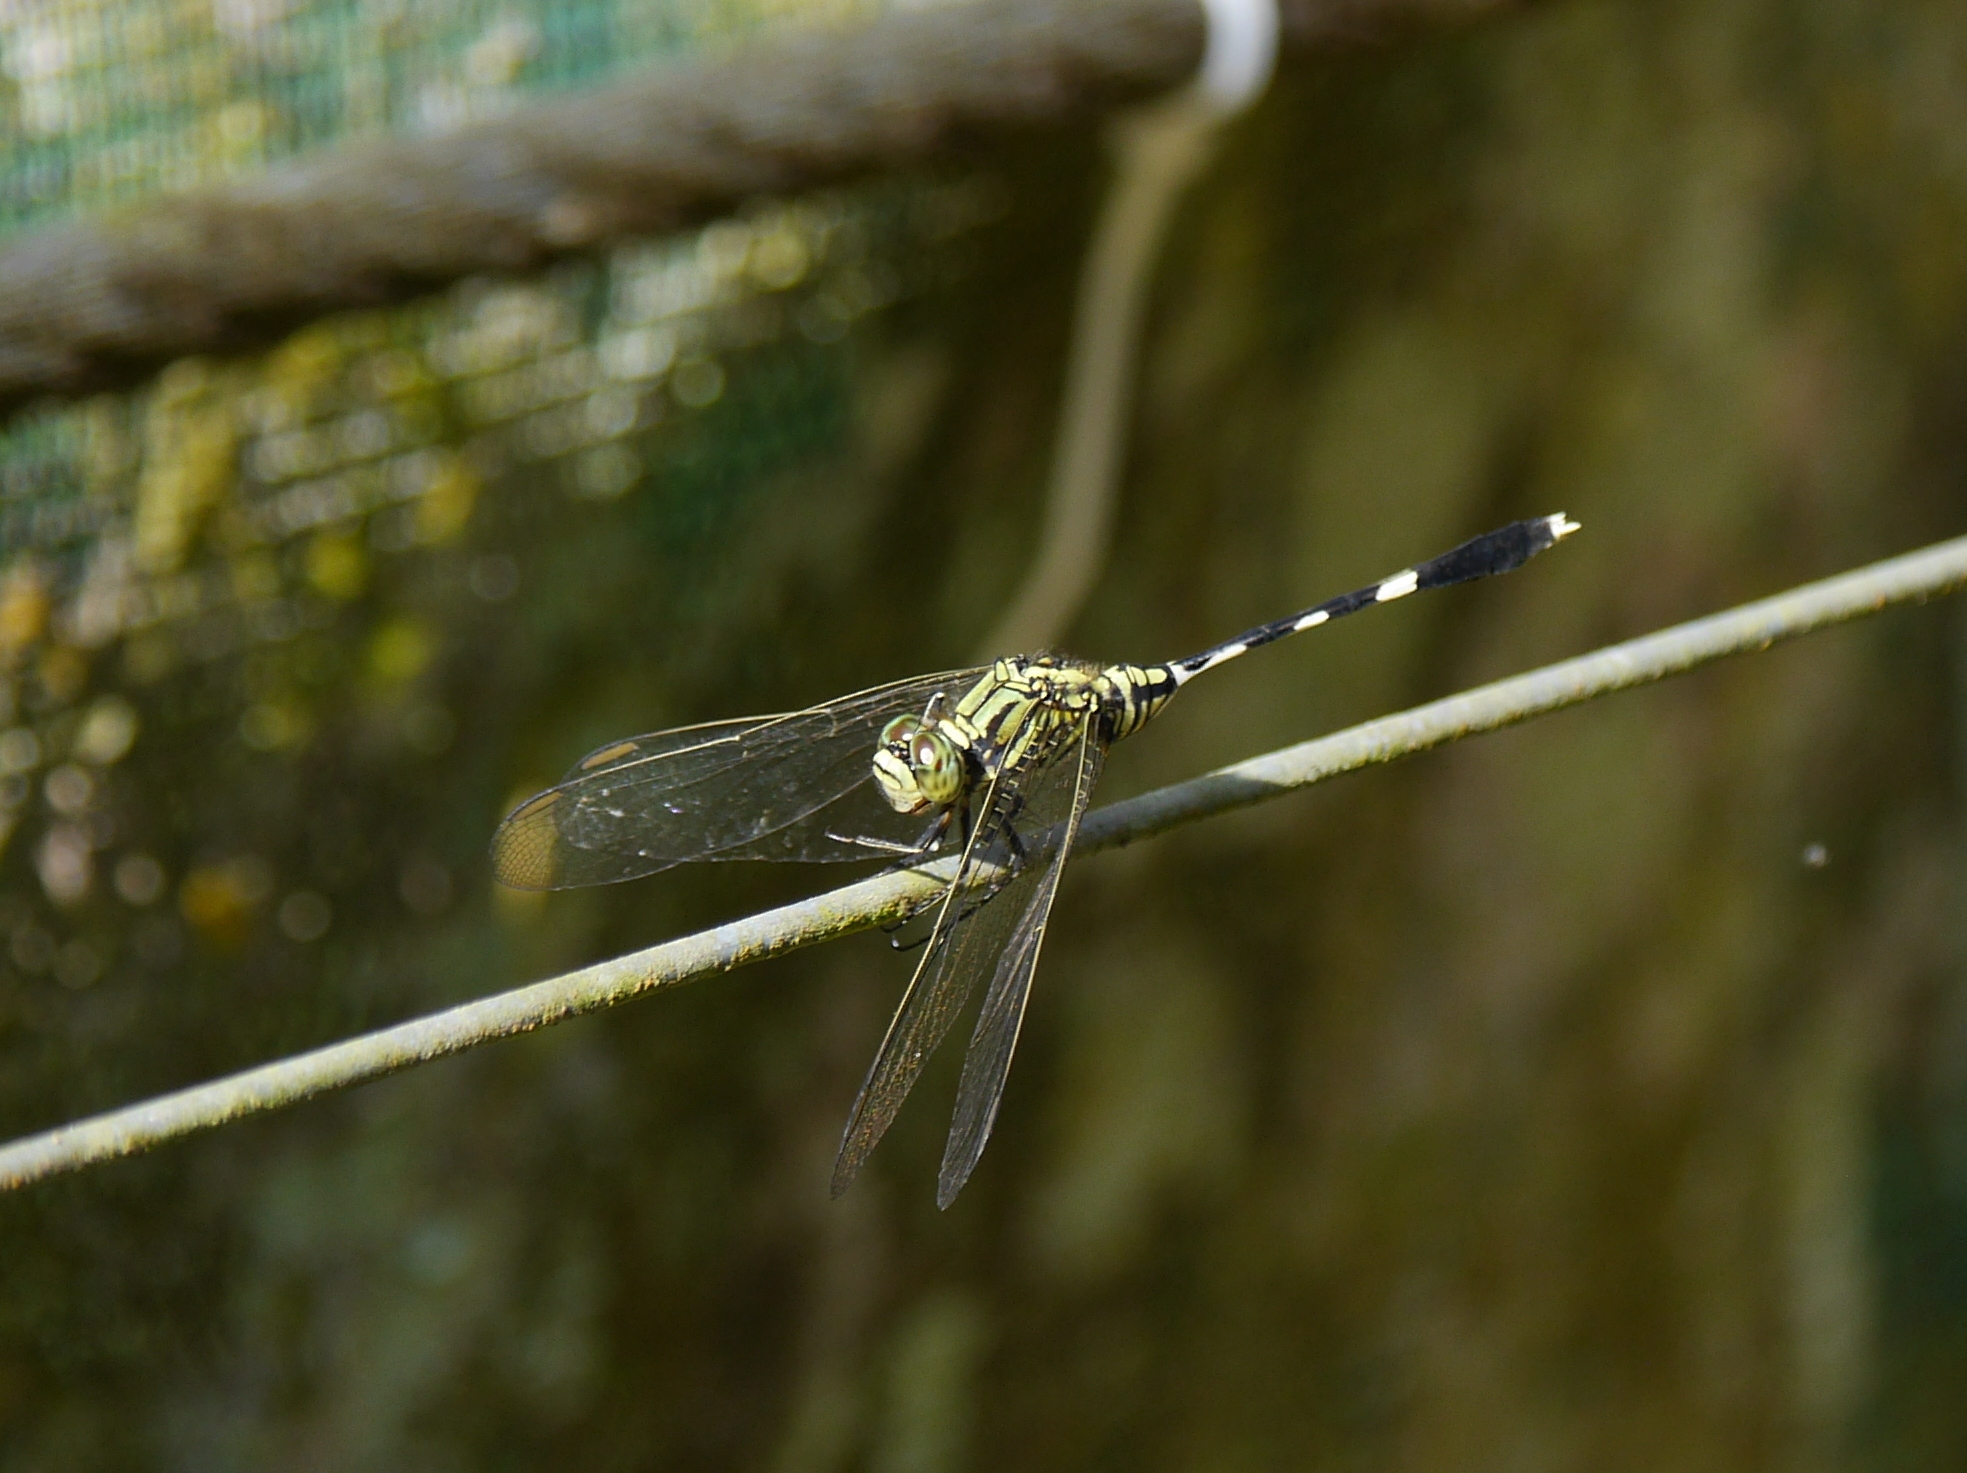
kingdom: Animalia
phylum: Arthropoda
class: Insecta
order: Odonata
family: Libellulidae
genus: Orthetrum
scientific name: Orthetrum sabina
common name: Slender skimmer
